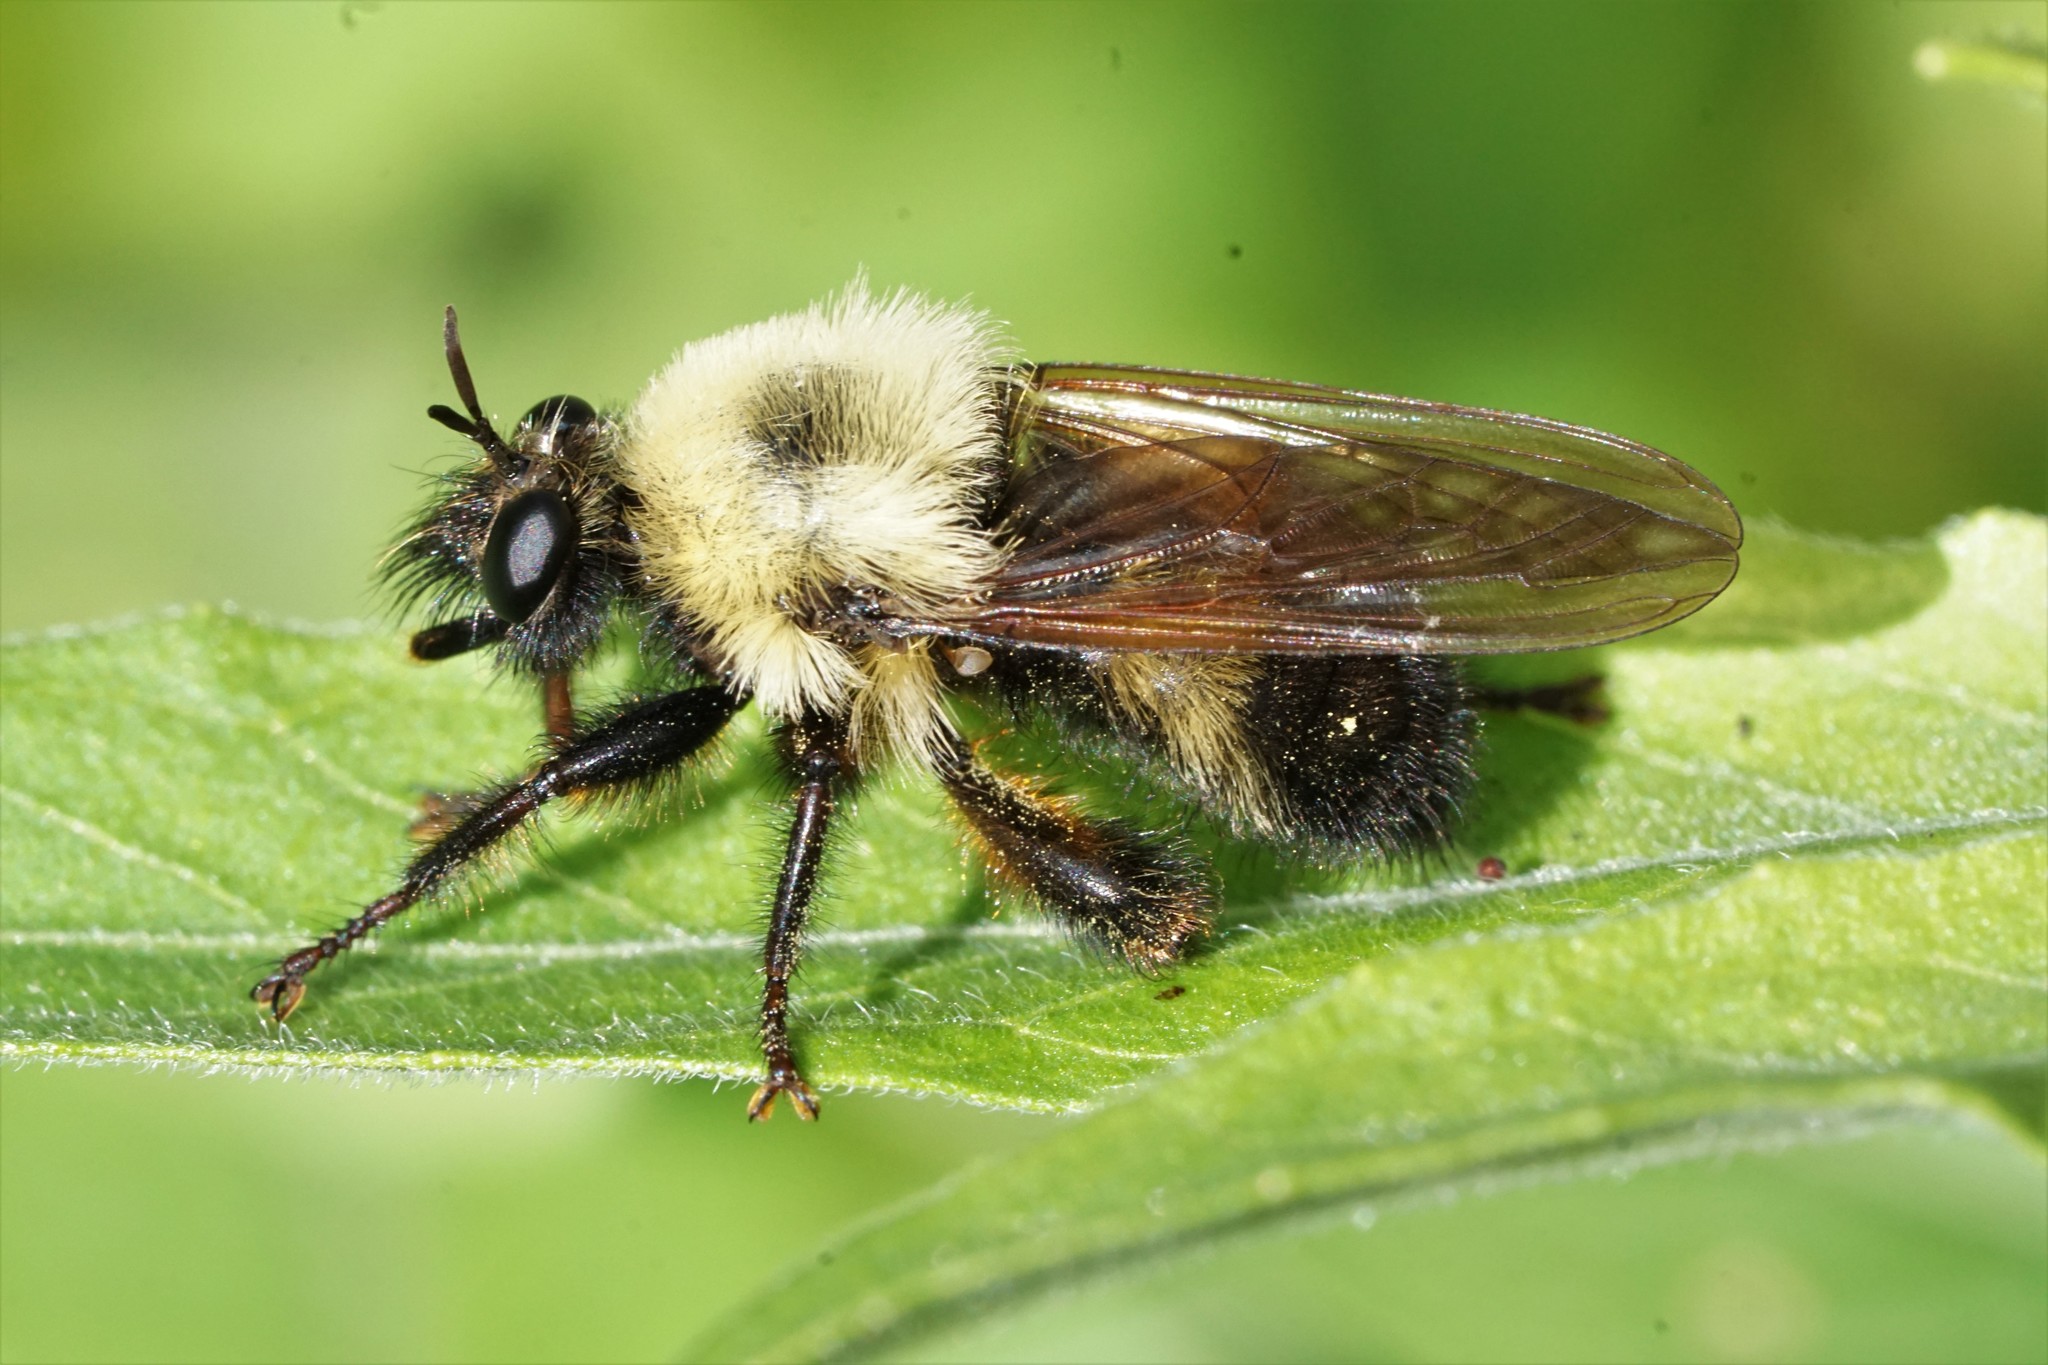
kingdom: Animalia
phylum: Arthropoda
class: Insecta
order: Diptera
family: Asilidae
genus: Laphria
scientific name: Laphria thoracica
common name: Bumble bee mimic robber fly
